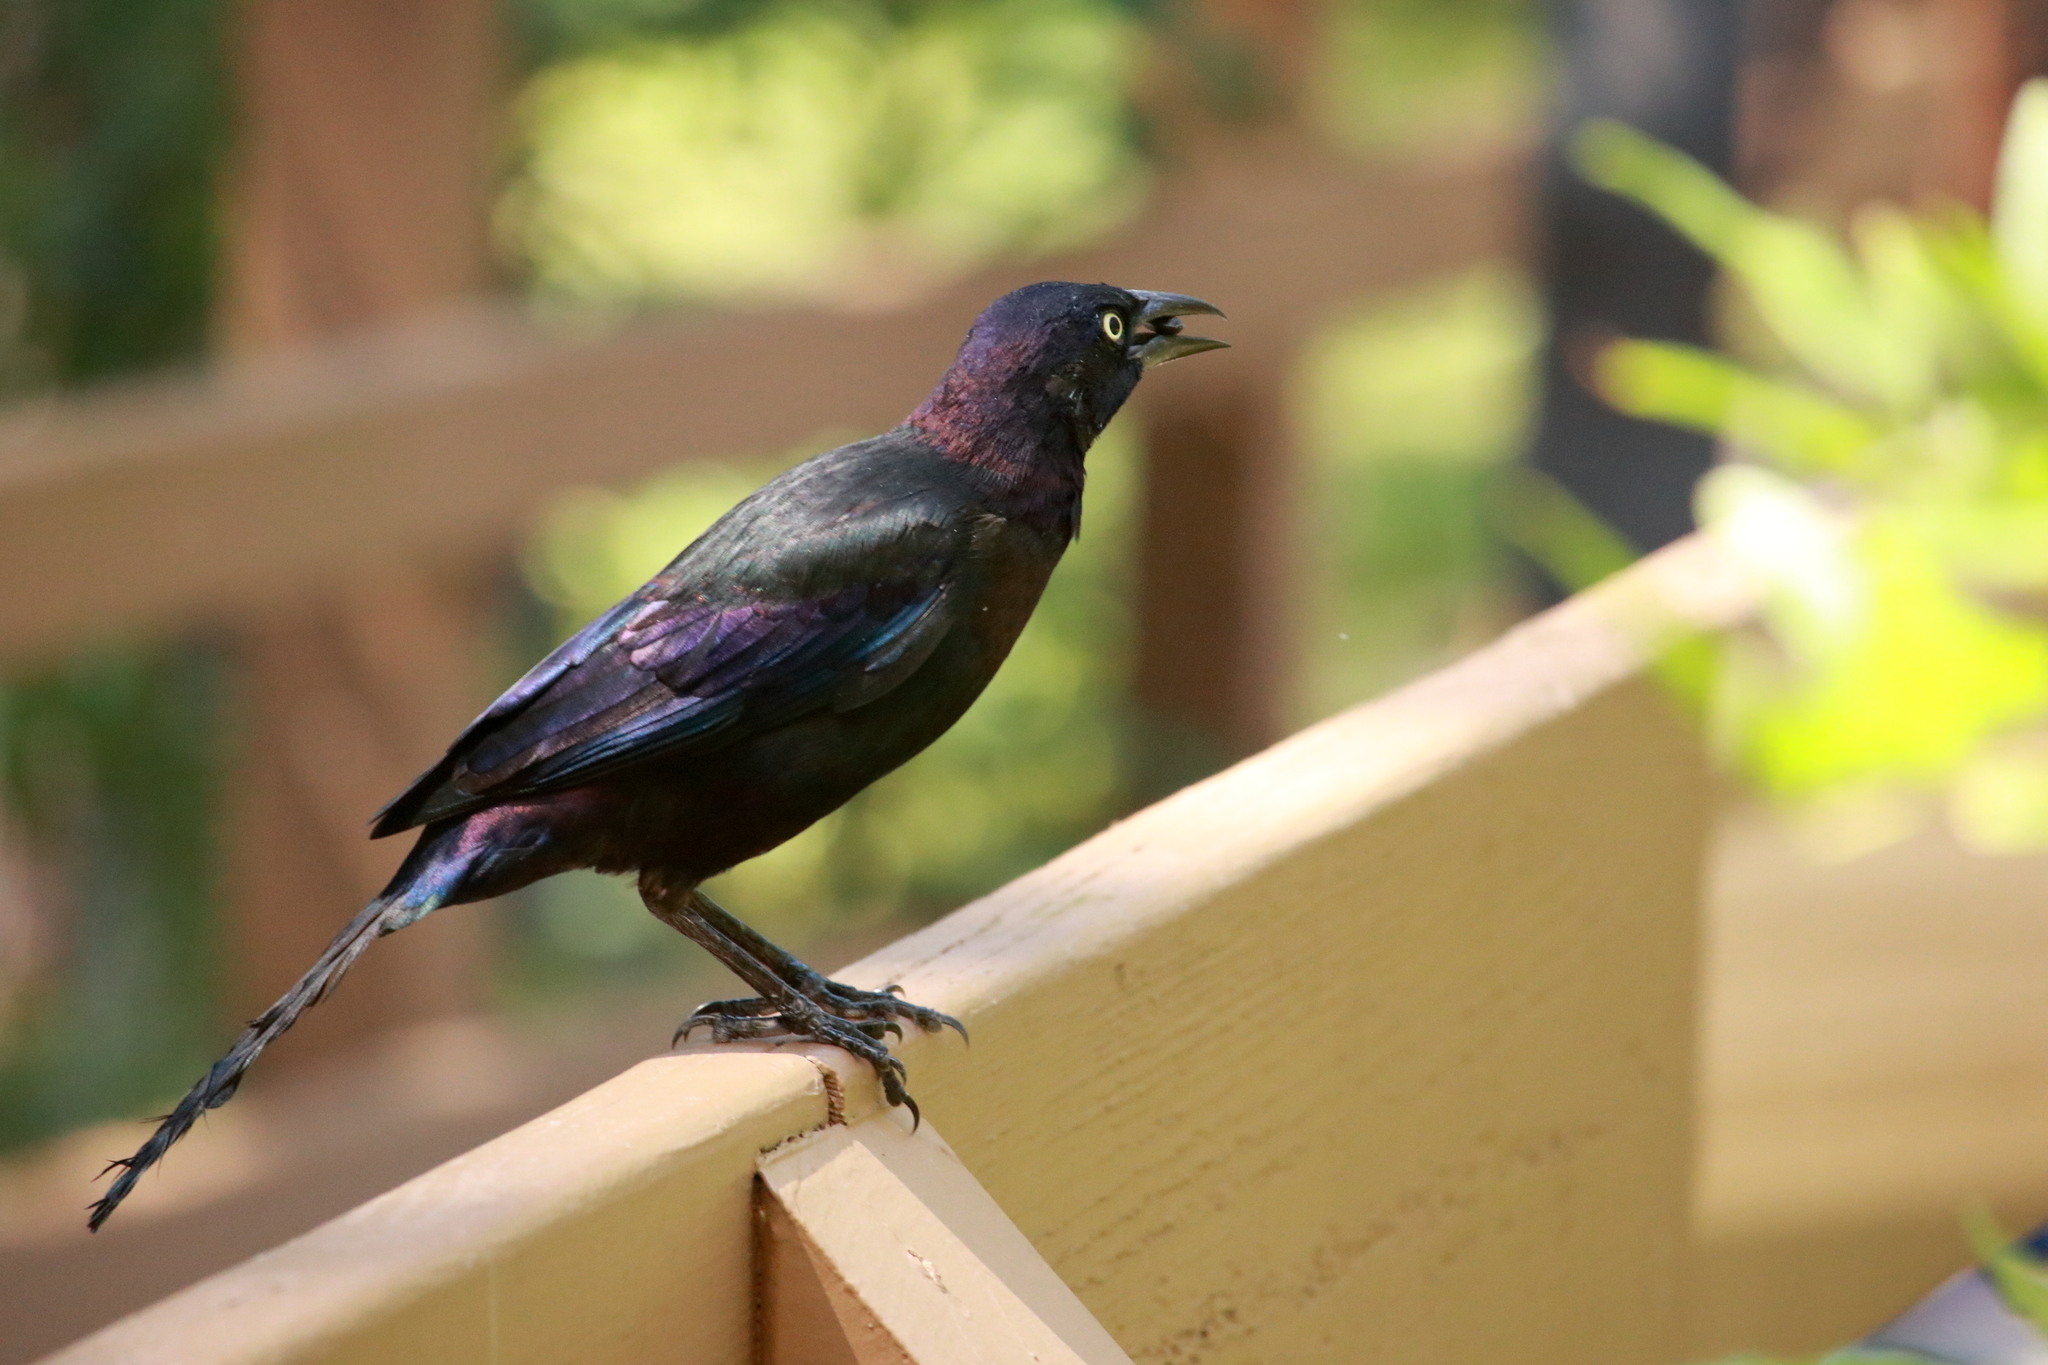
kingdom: Animalia
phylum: Chordata
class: Aves
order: Passeriformes
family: Icteridae
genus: Quiscalus
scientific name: Quiscalus quiscula
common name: Common grackle
